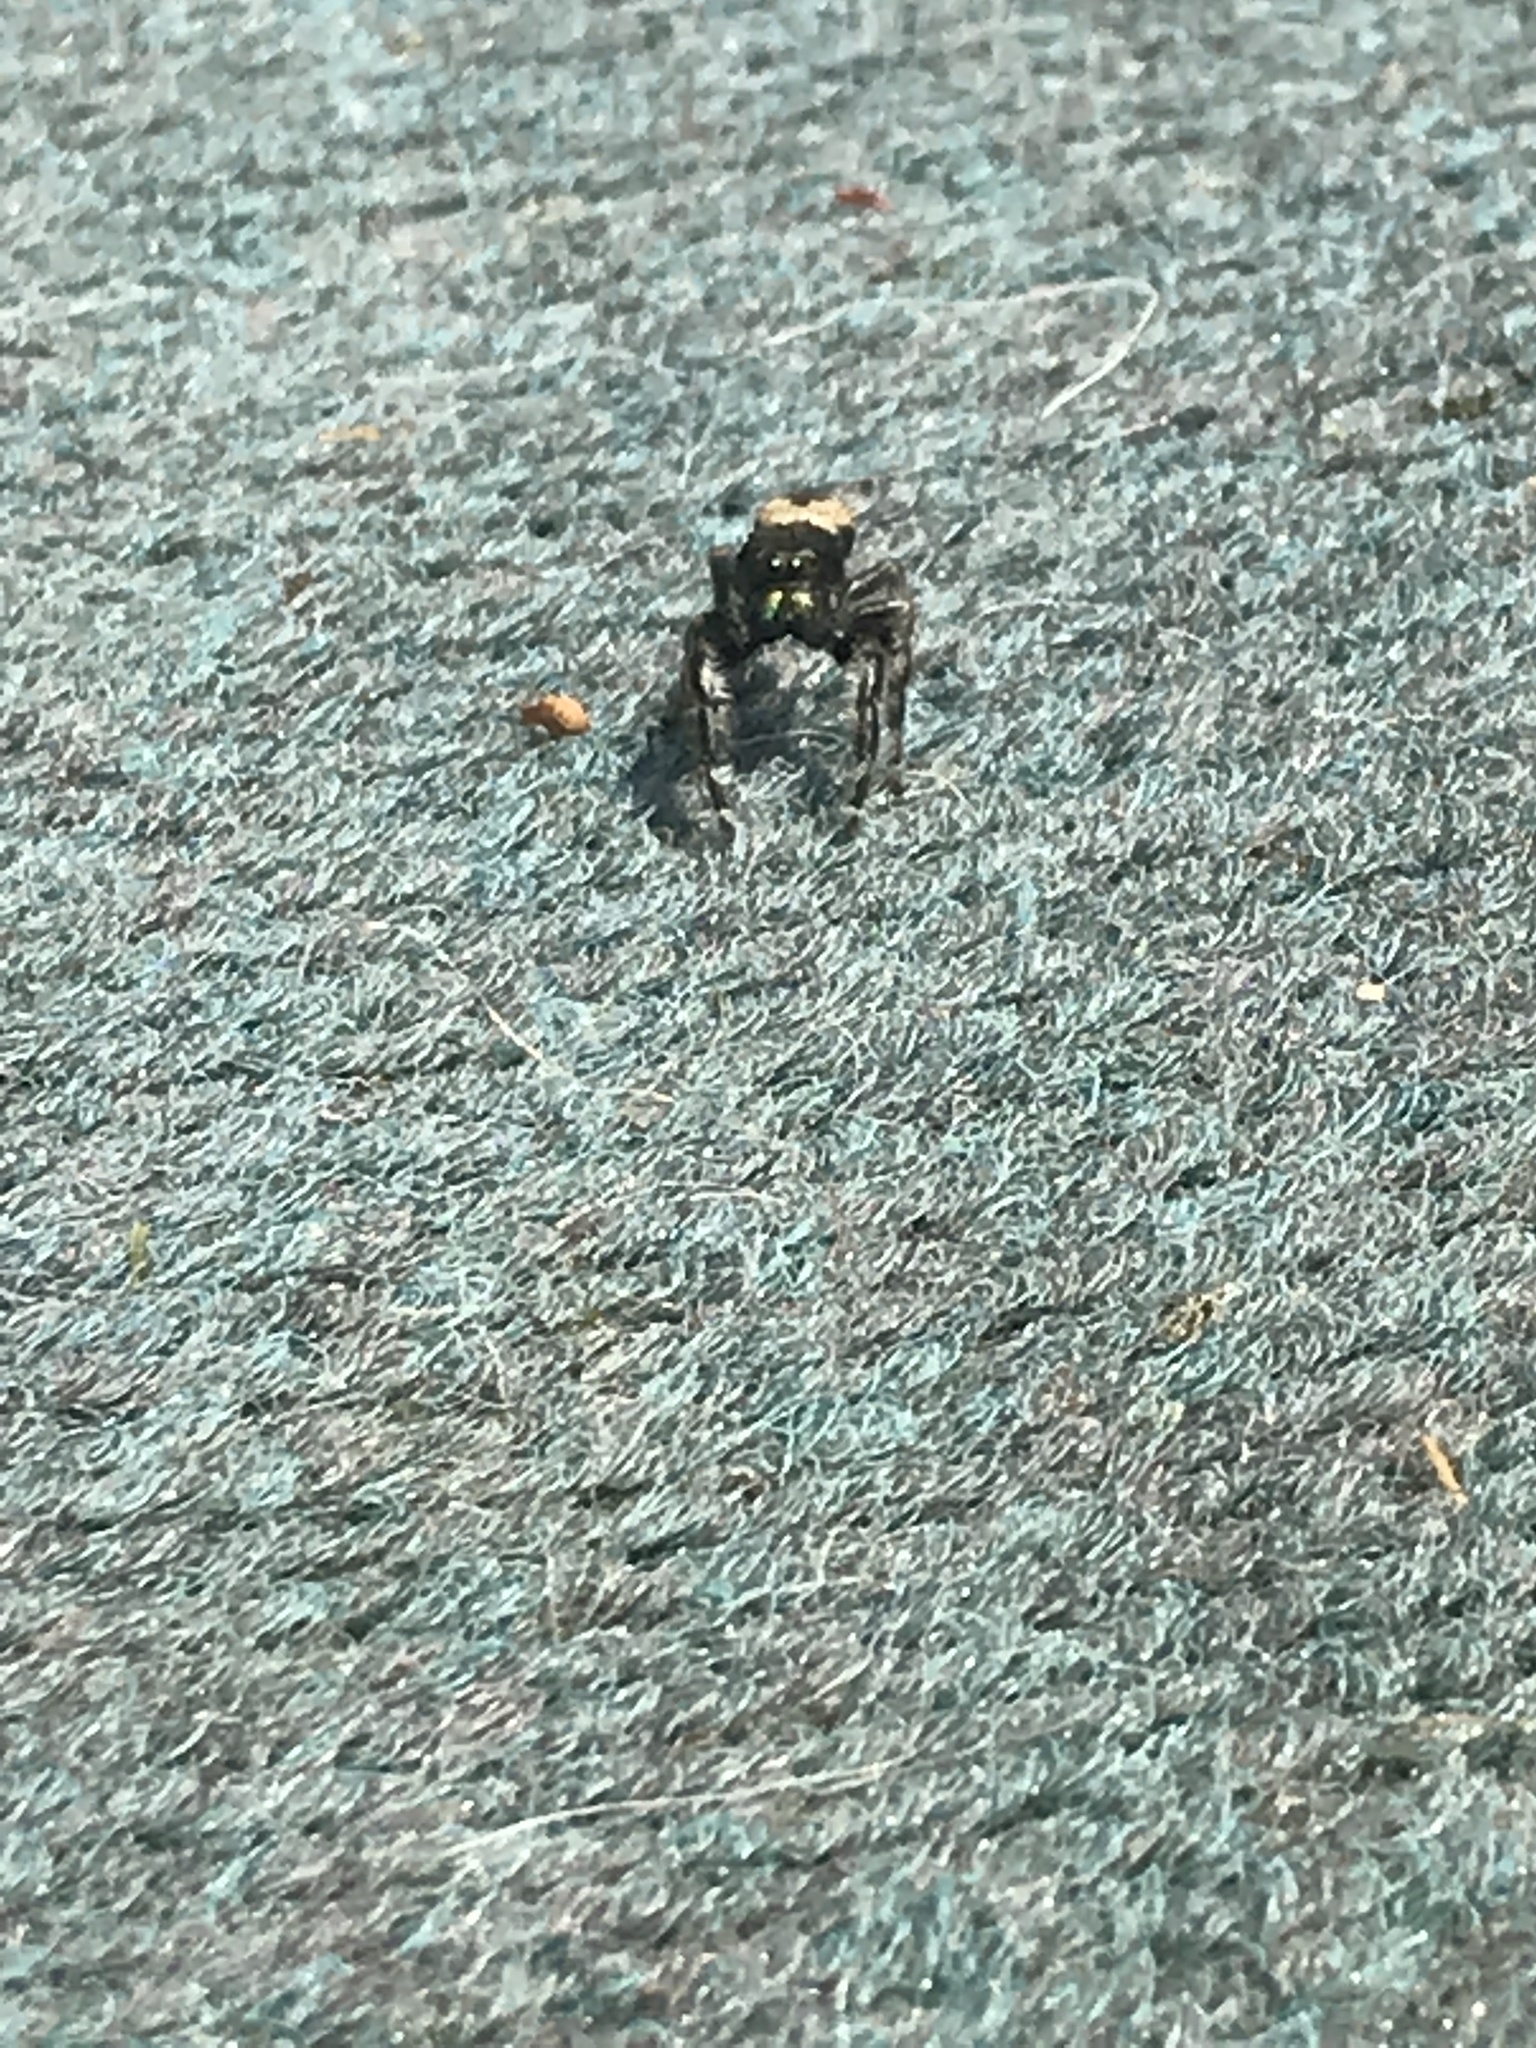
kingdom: Animalia
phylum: Arthropoda
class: Arachnida
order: Araneae
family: Salticidae
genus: Phidippus
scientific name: Phidippus purpuratus
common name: Marbled purple jumping spider
